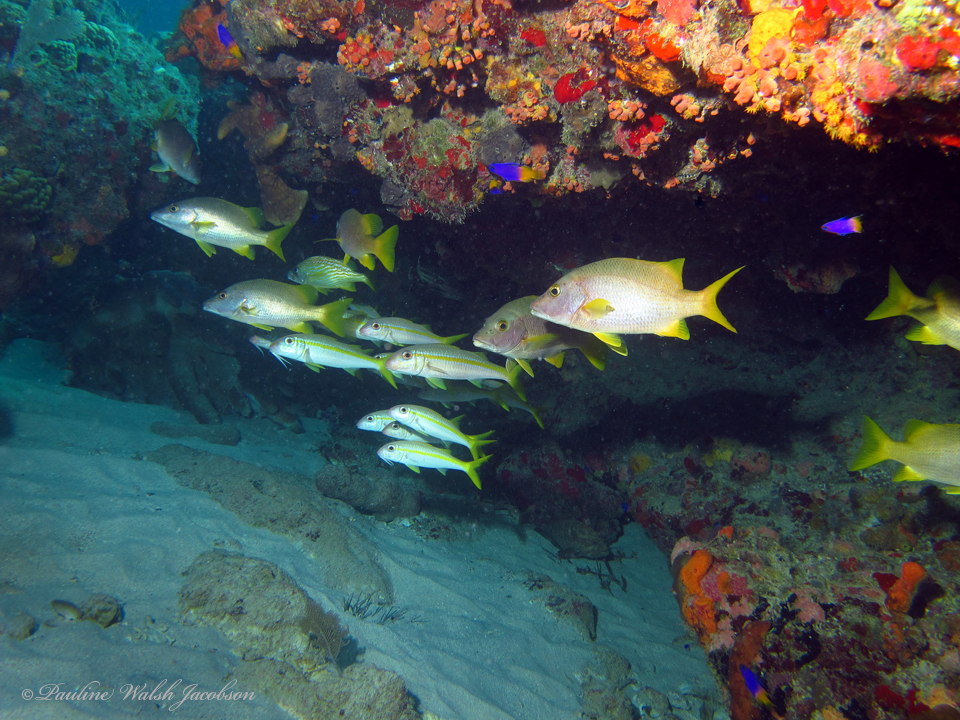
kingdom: Animalia
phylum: Chordata
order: Perciformes
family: Grammatidae
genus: Gramma
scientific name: Gramma loreto
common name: Fairy basslet
